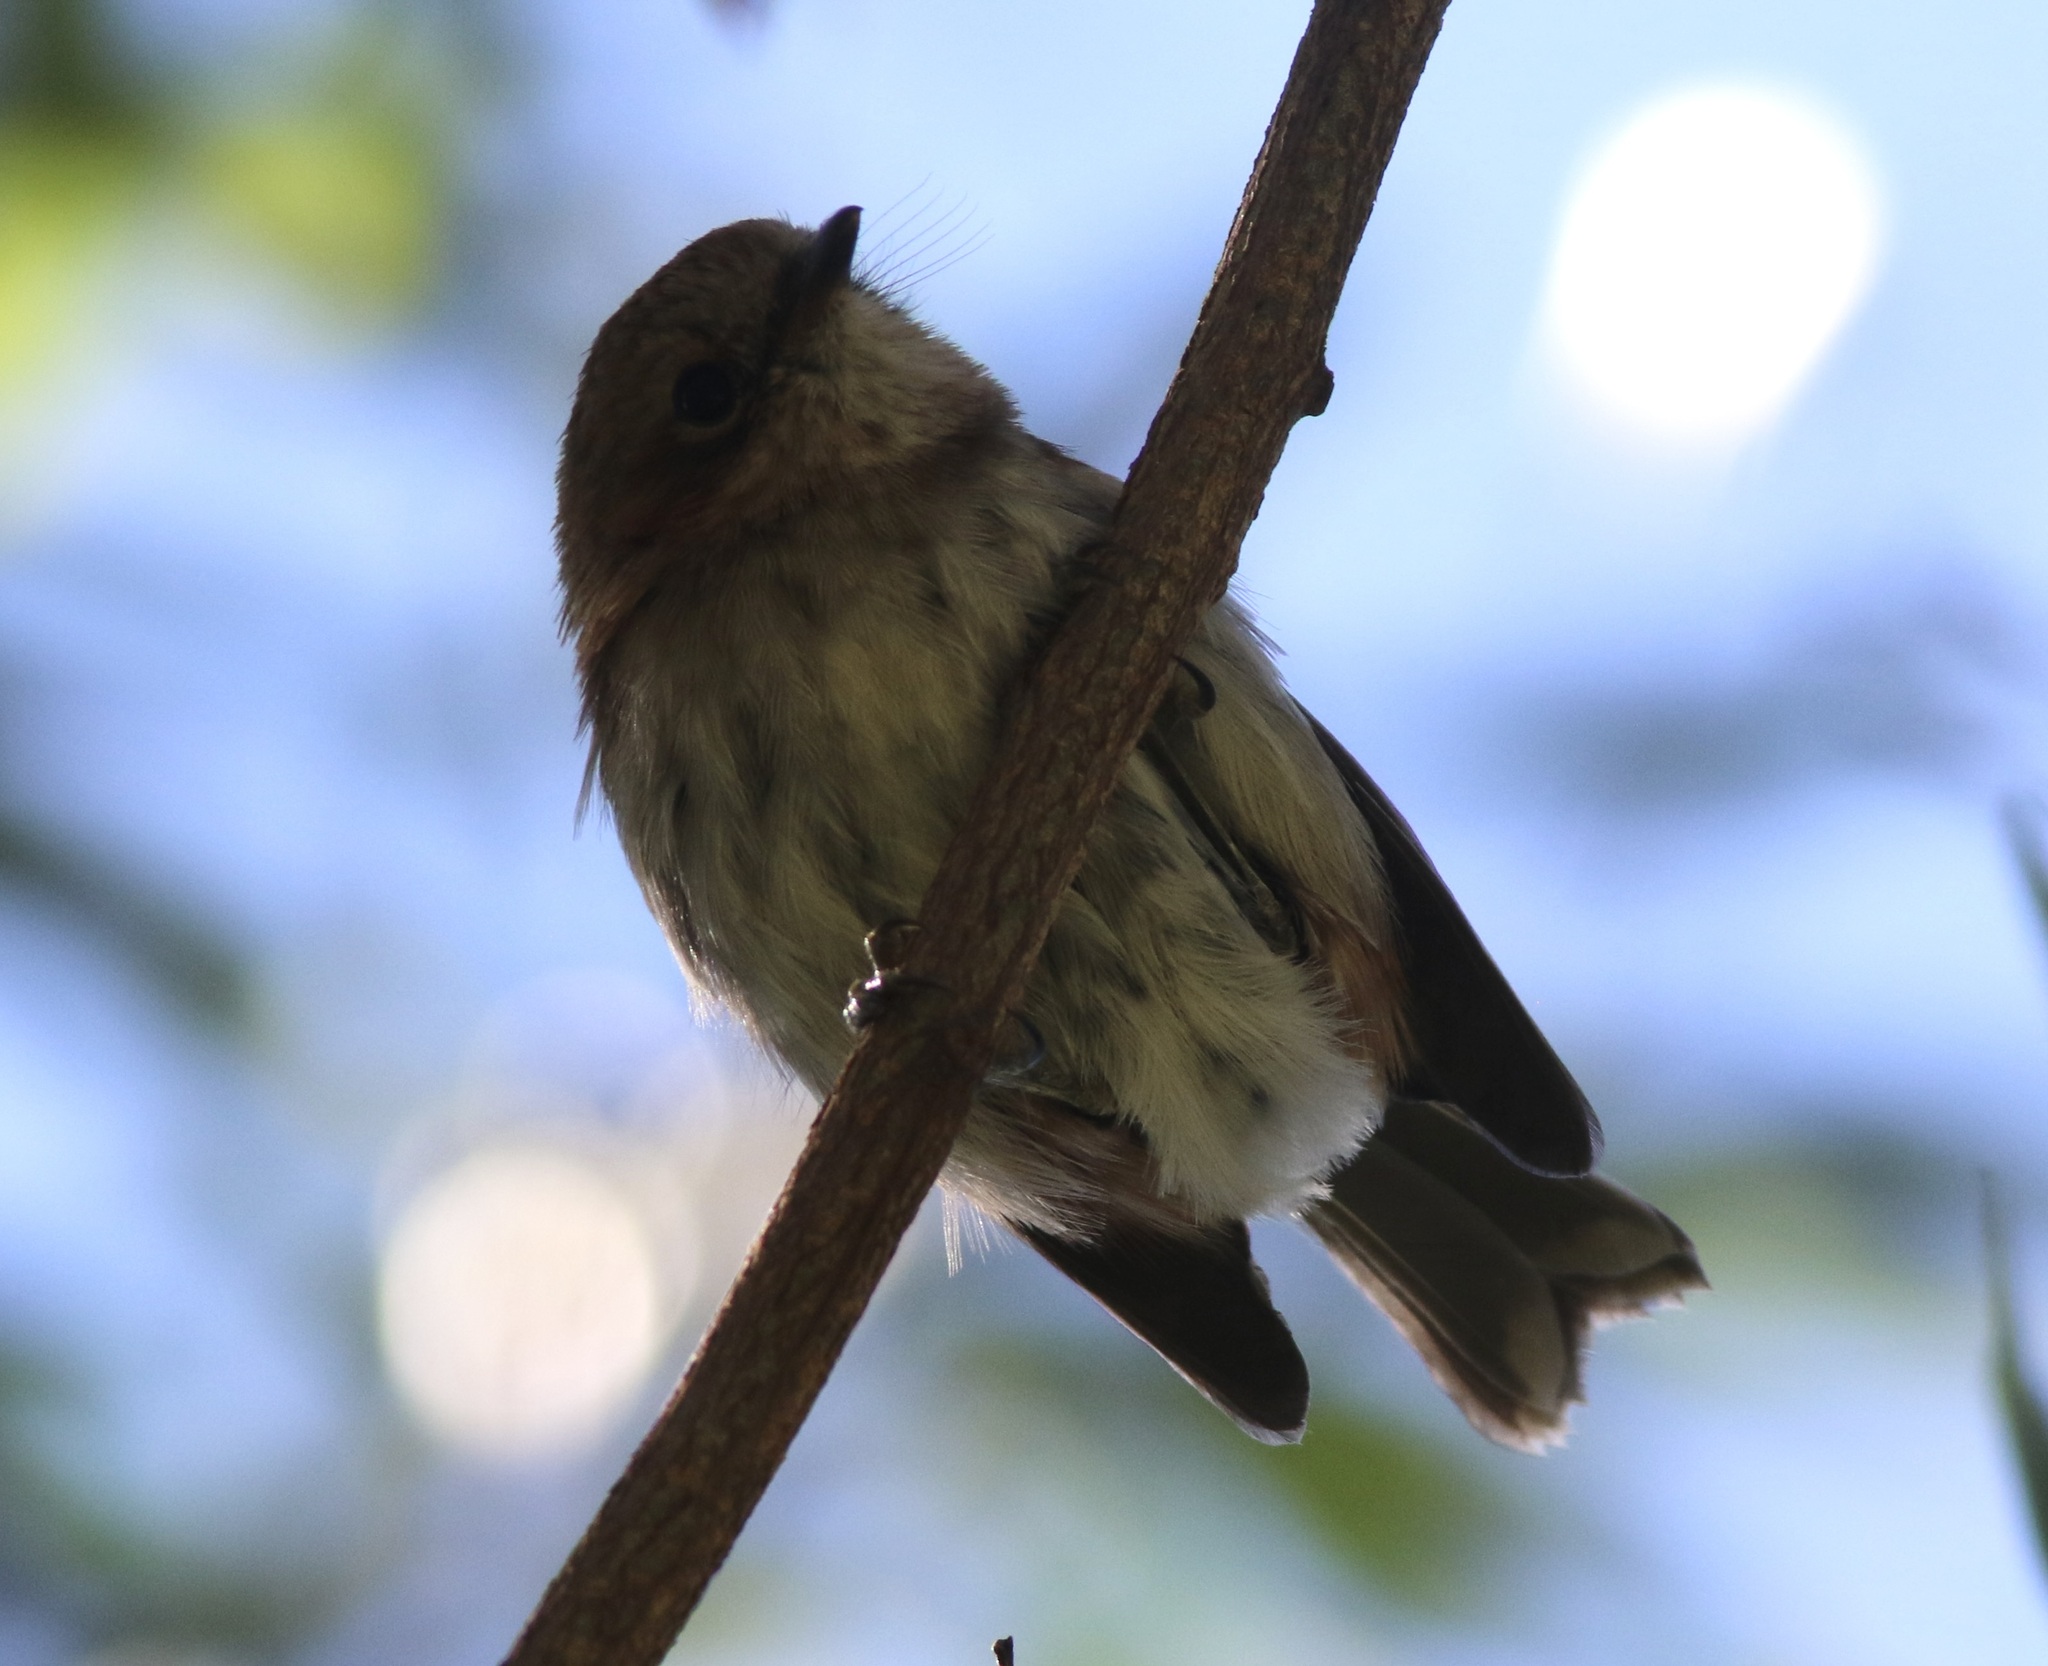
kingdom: Animalia
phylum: Chordata
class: Aves
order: Passeriformes
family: Monarchidae
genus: Chasiempis
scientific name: Chasiempis sandwichensis
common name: Hawaii elepaio
